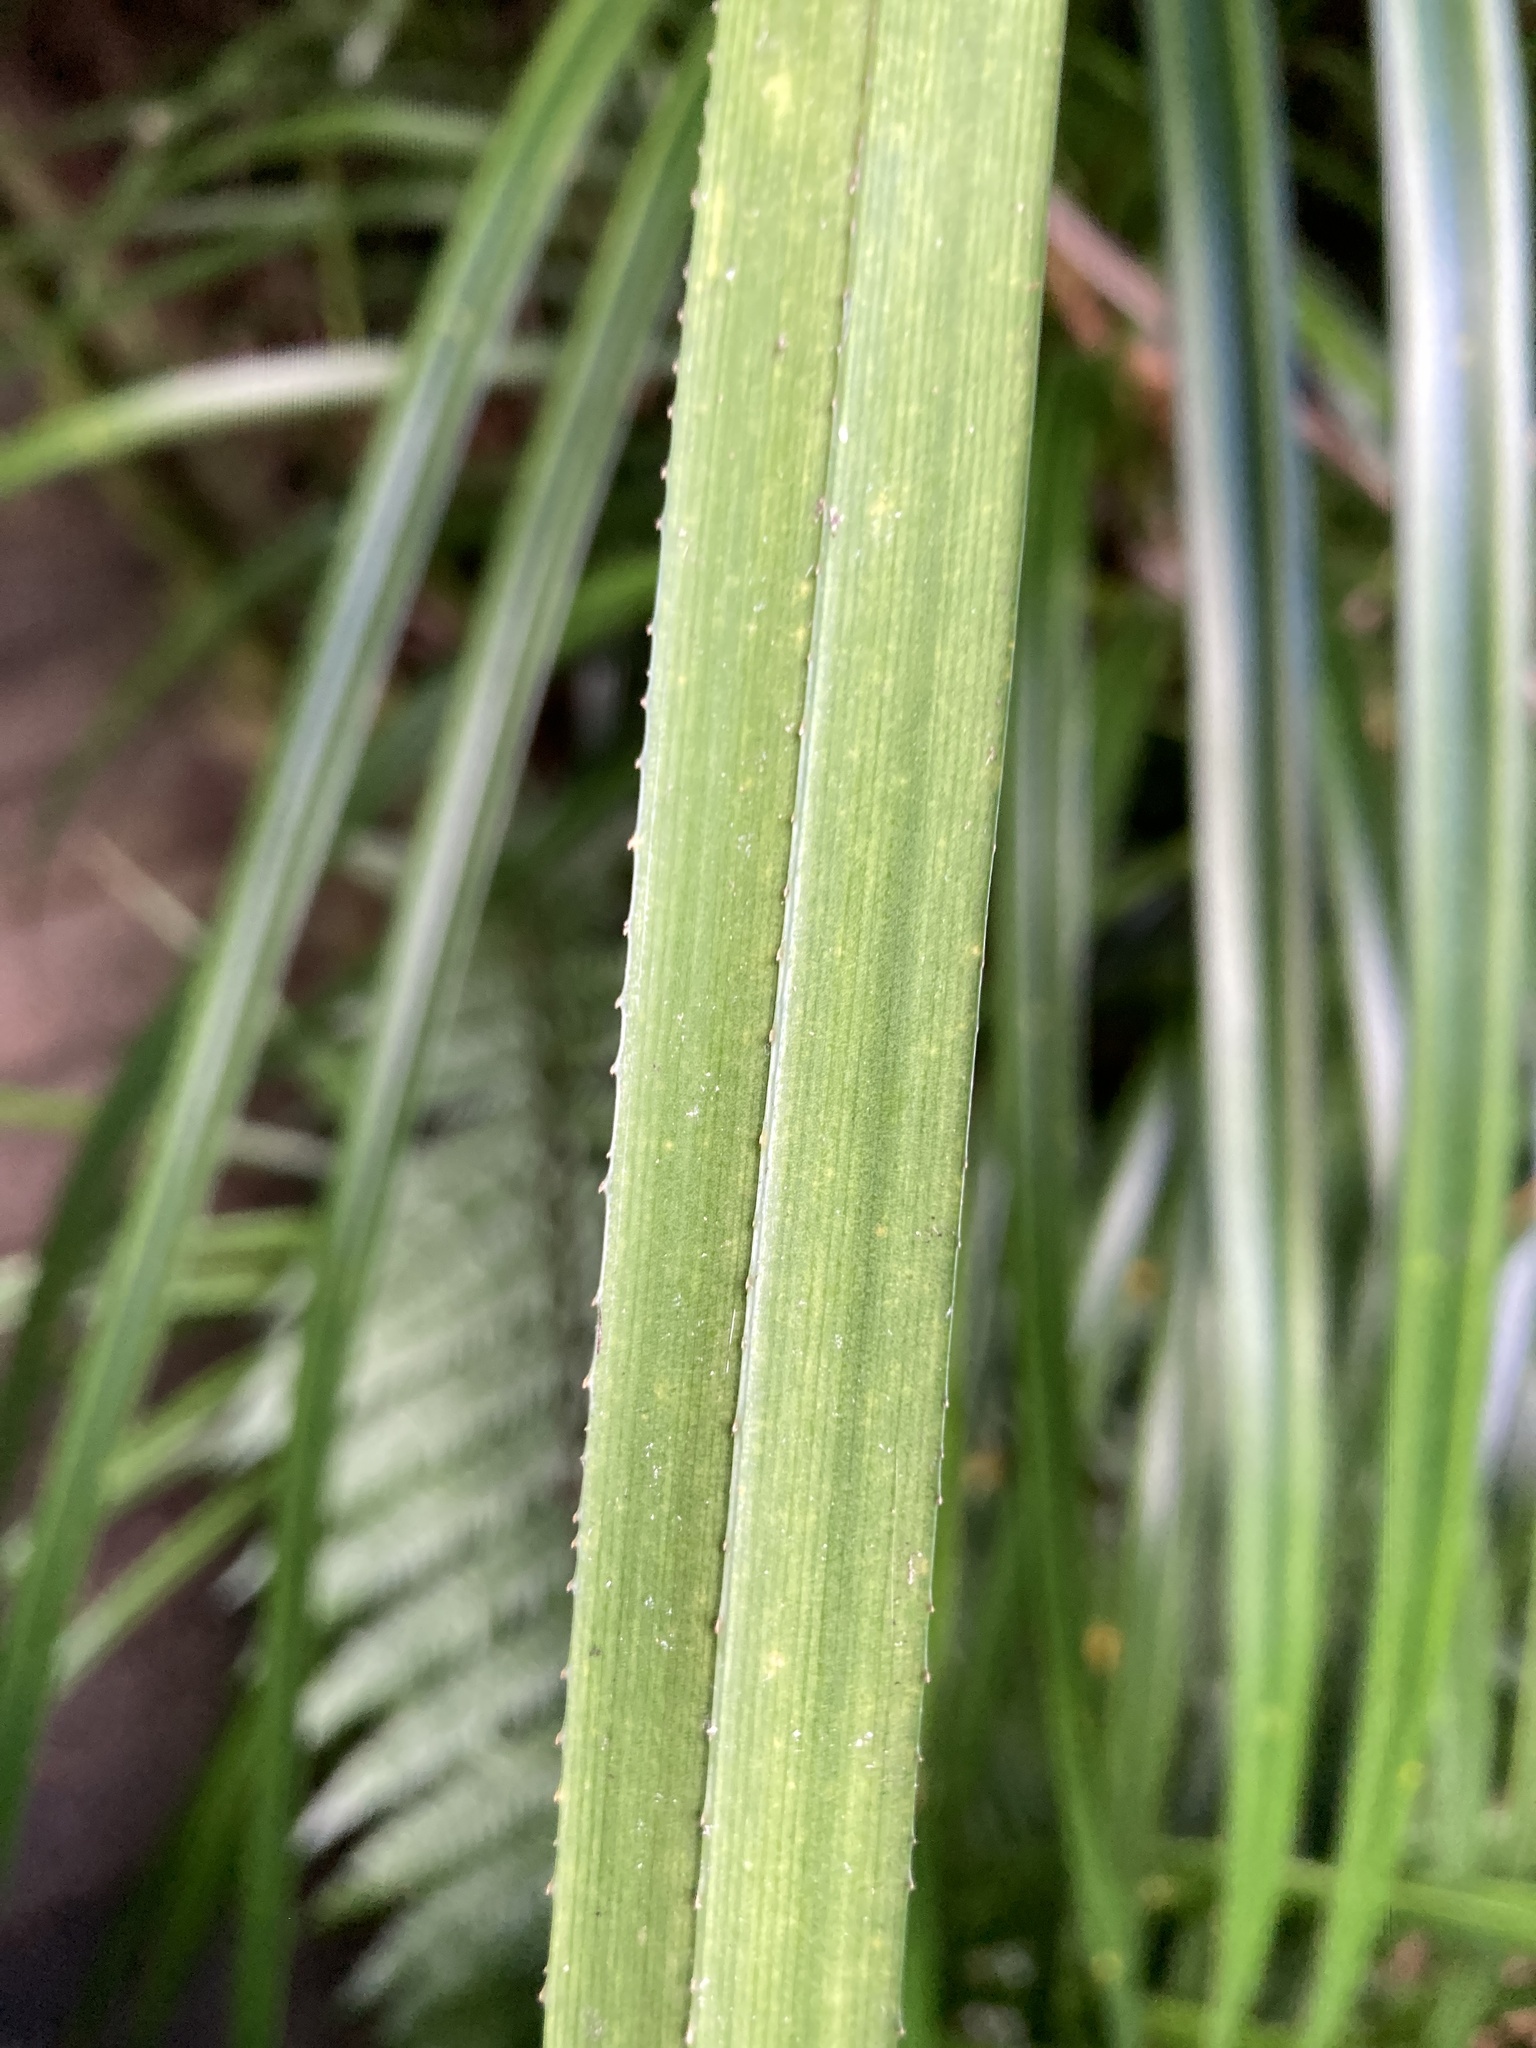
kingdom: Plantae
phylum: Tracheophyta
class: Liliopsida
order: Pandanales
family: Pandanaceae
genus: Freycinetia
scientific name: Freycinetia banksii
